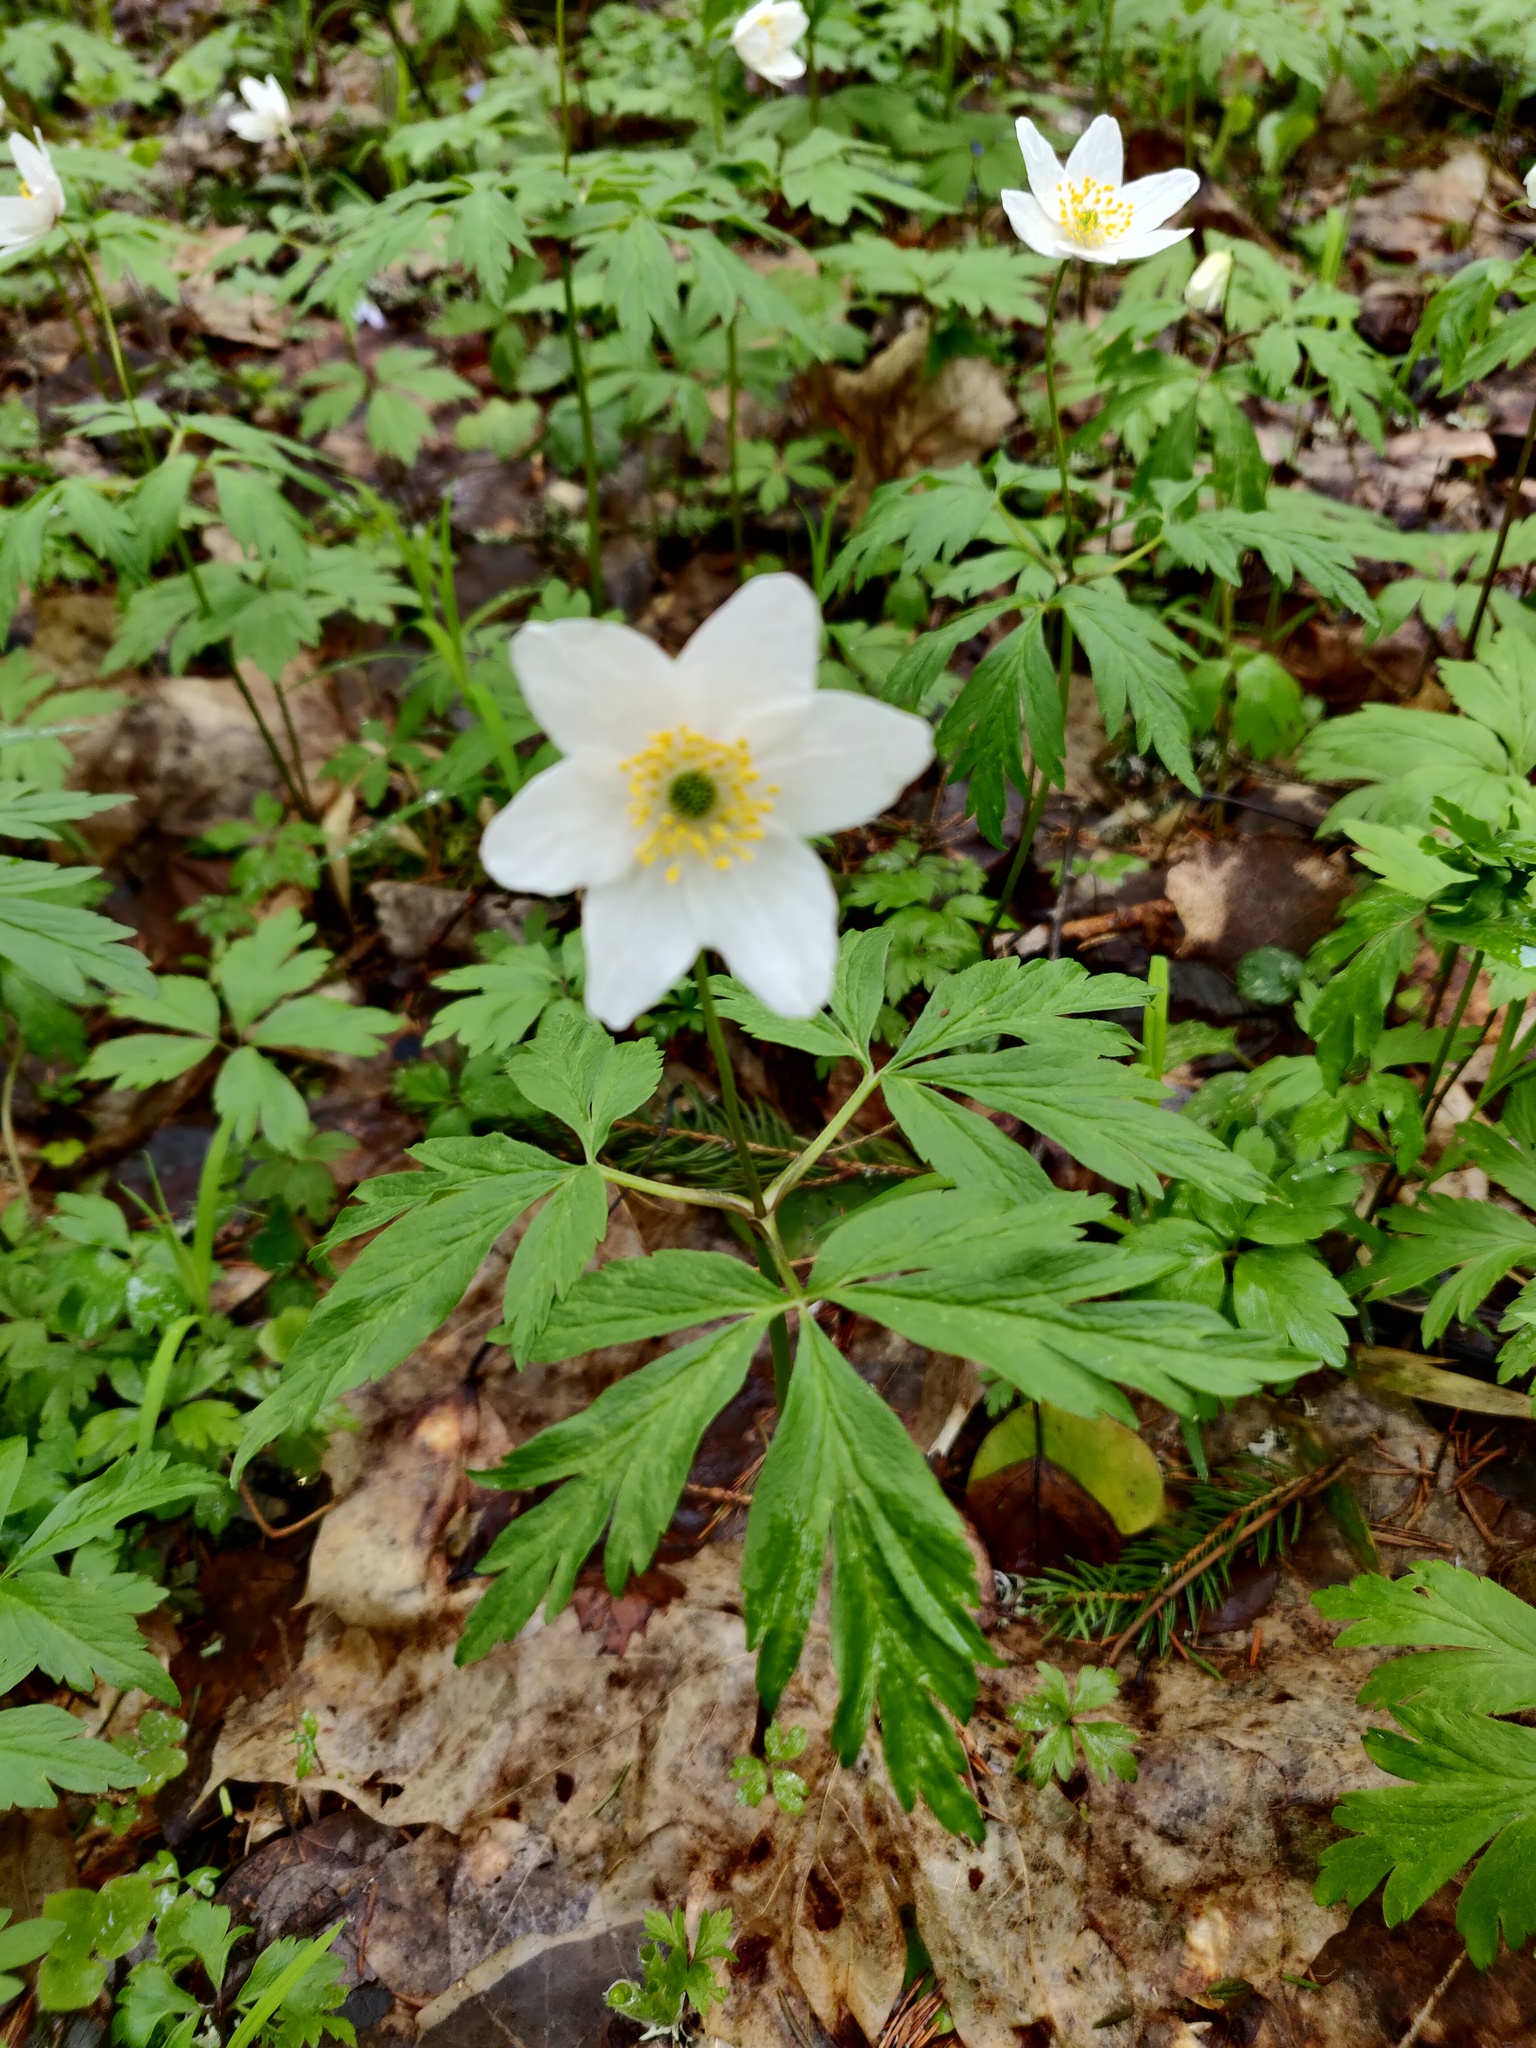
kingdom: Plantae
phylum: Tracheophyta
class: Magnoliopsida
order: Ranunculales
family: Ranunculaceae
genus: Anemone
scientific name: Anemone nemorosa
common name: Wood anemone
